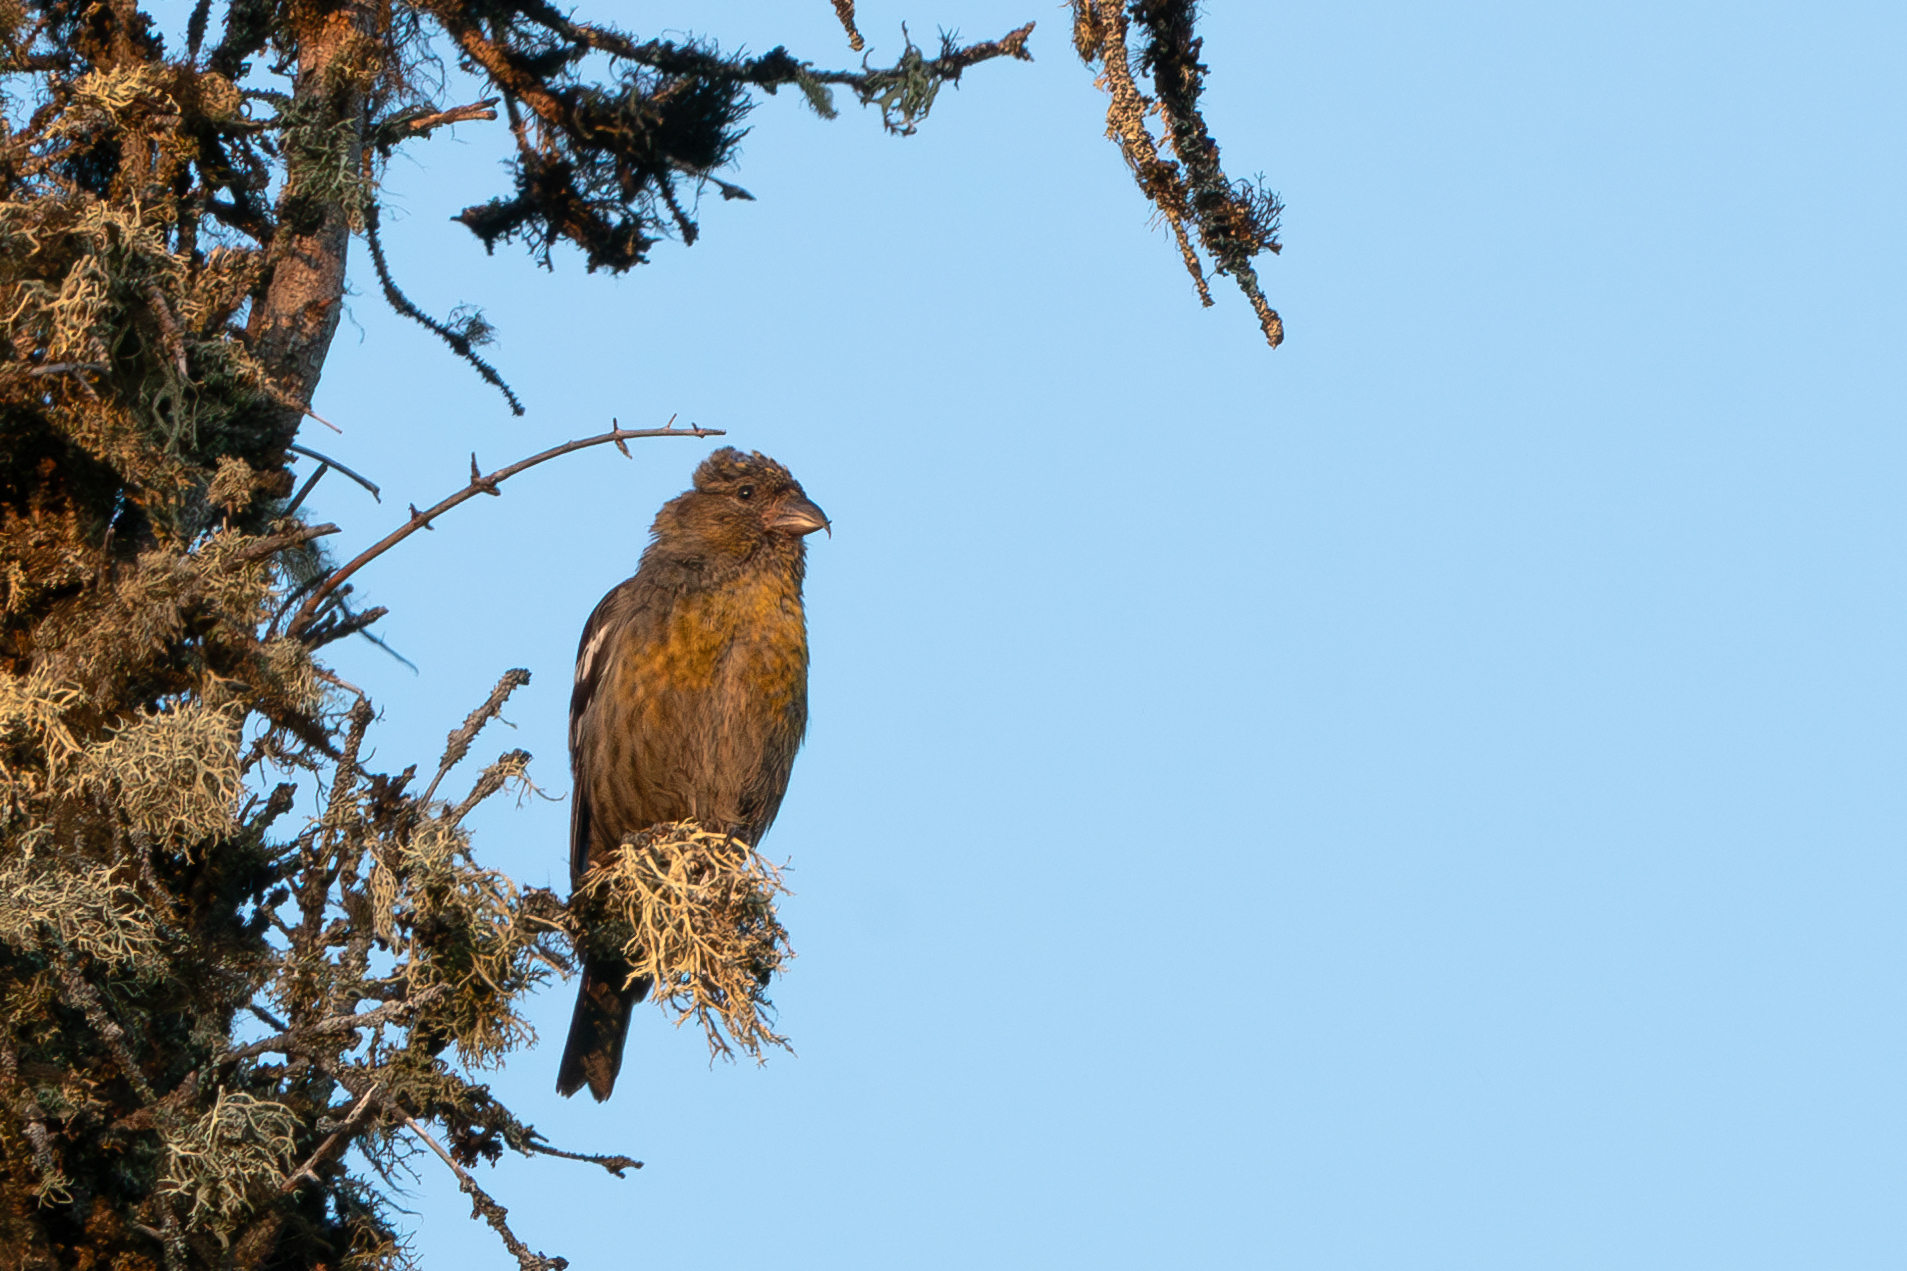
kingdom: Animalia
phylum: Chordata
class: Aves
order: Passeriformes
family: Fringillidae
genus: Loxia
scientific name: Loxia leucoptera
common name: Two-barred crossbill
